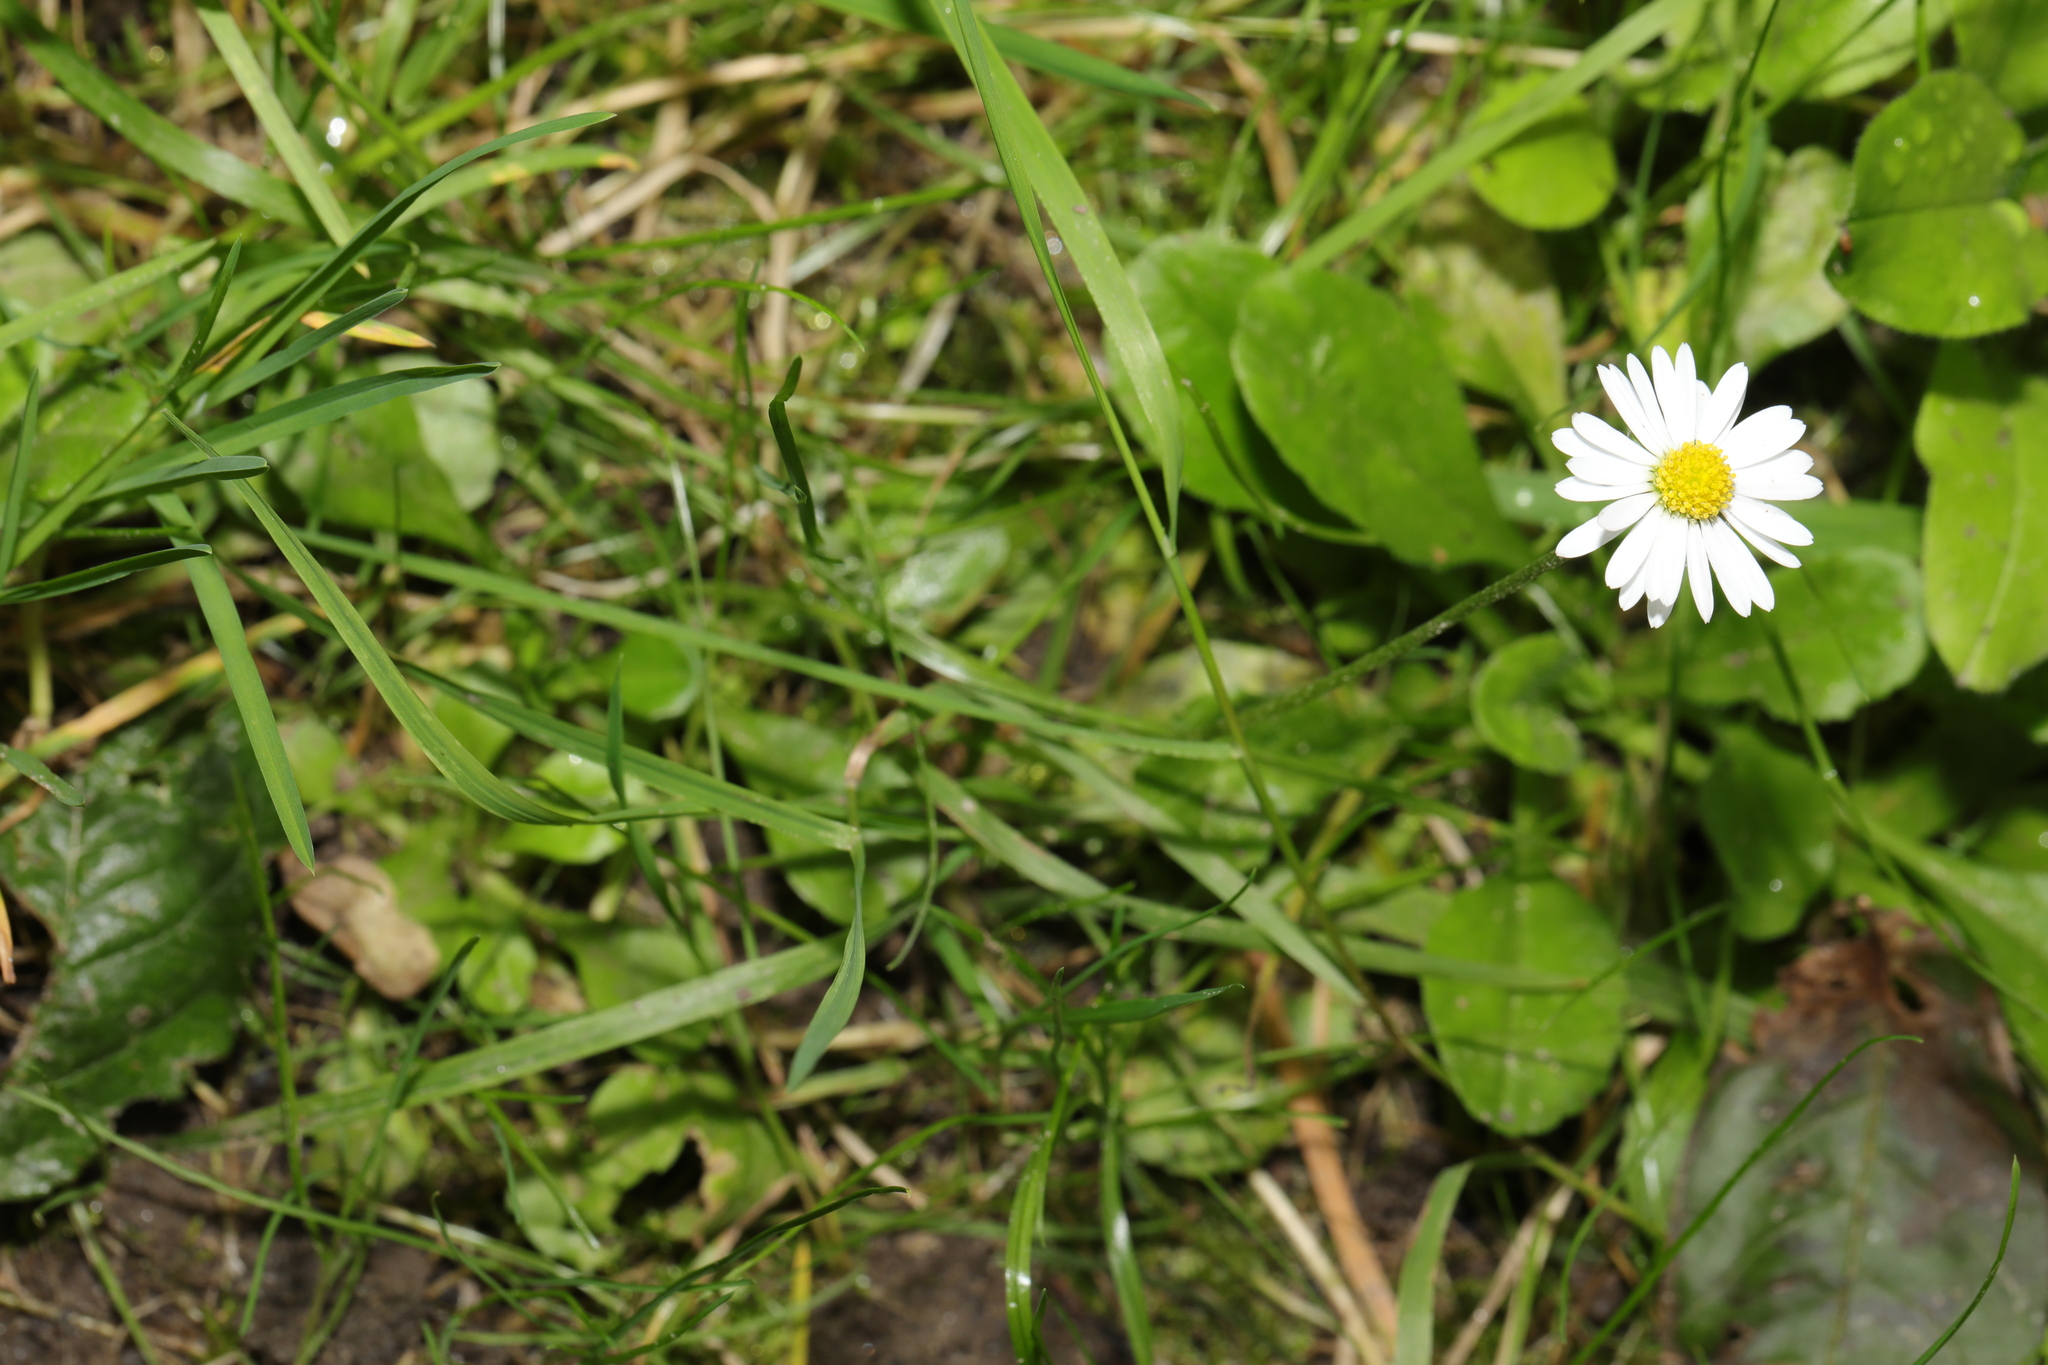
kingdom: Plantae
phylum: Tracheophyta
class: Magnoliopsida
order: Asterales
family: Asteraceae
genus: Bellis
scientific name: Bellis perennis
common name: Lawndaisy
